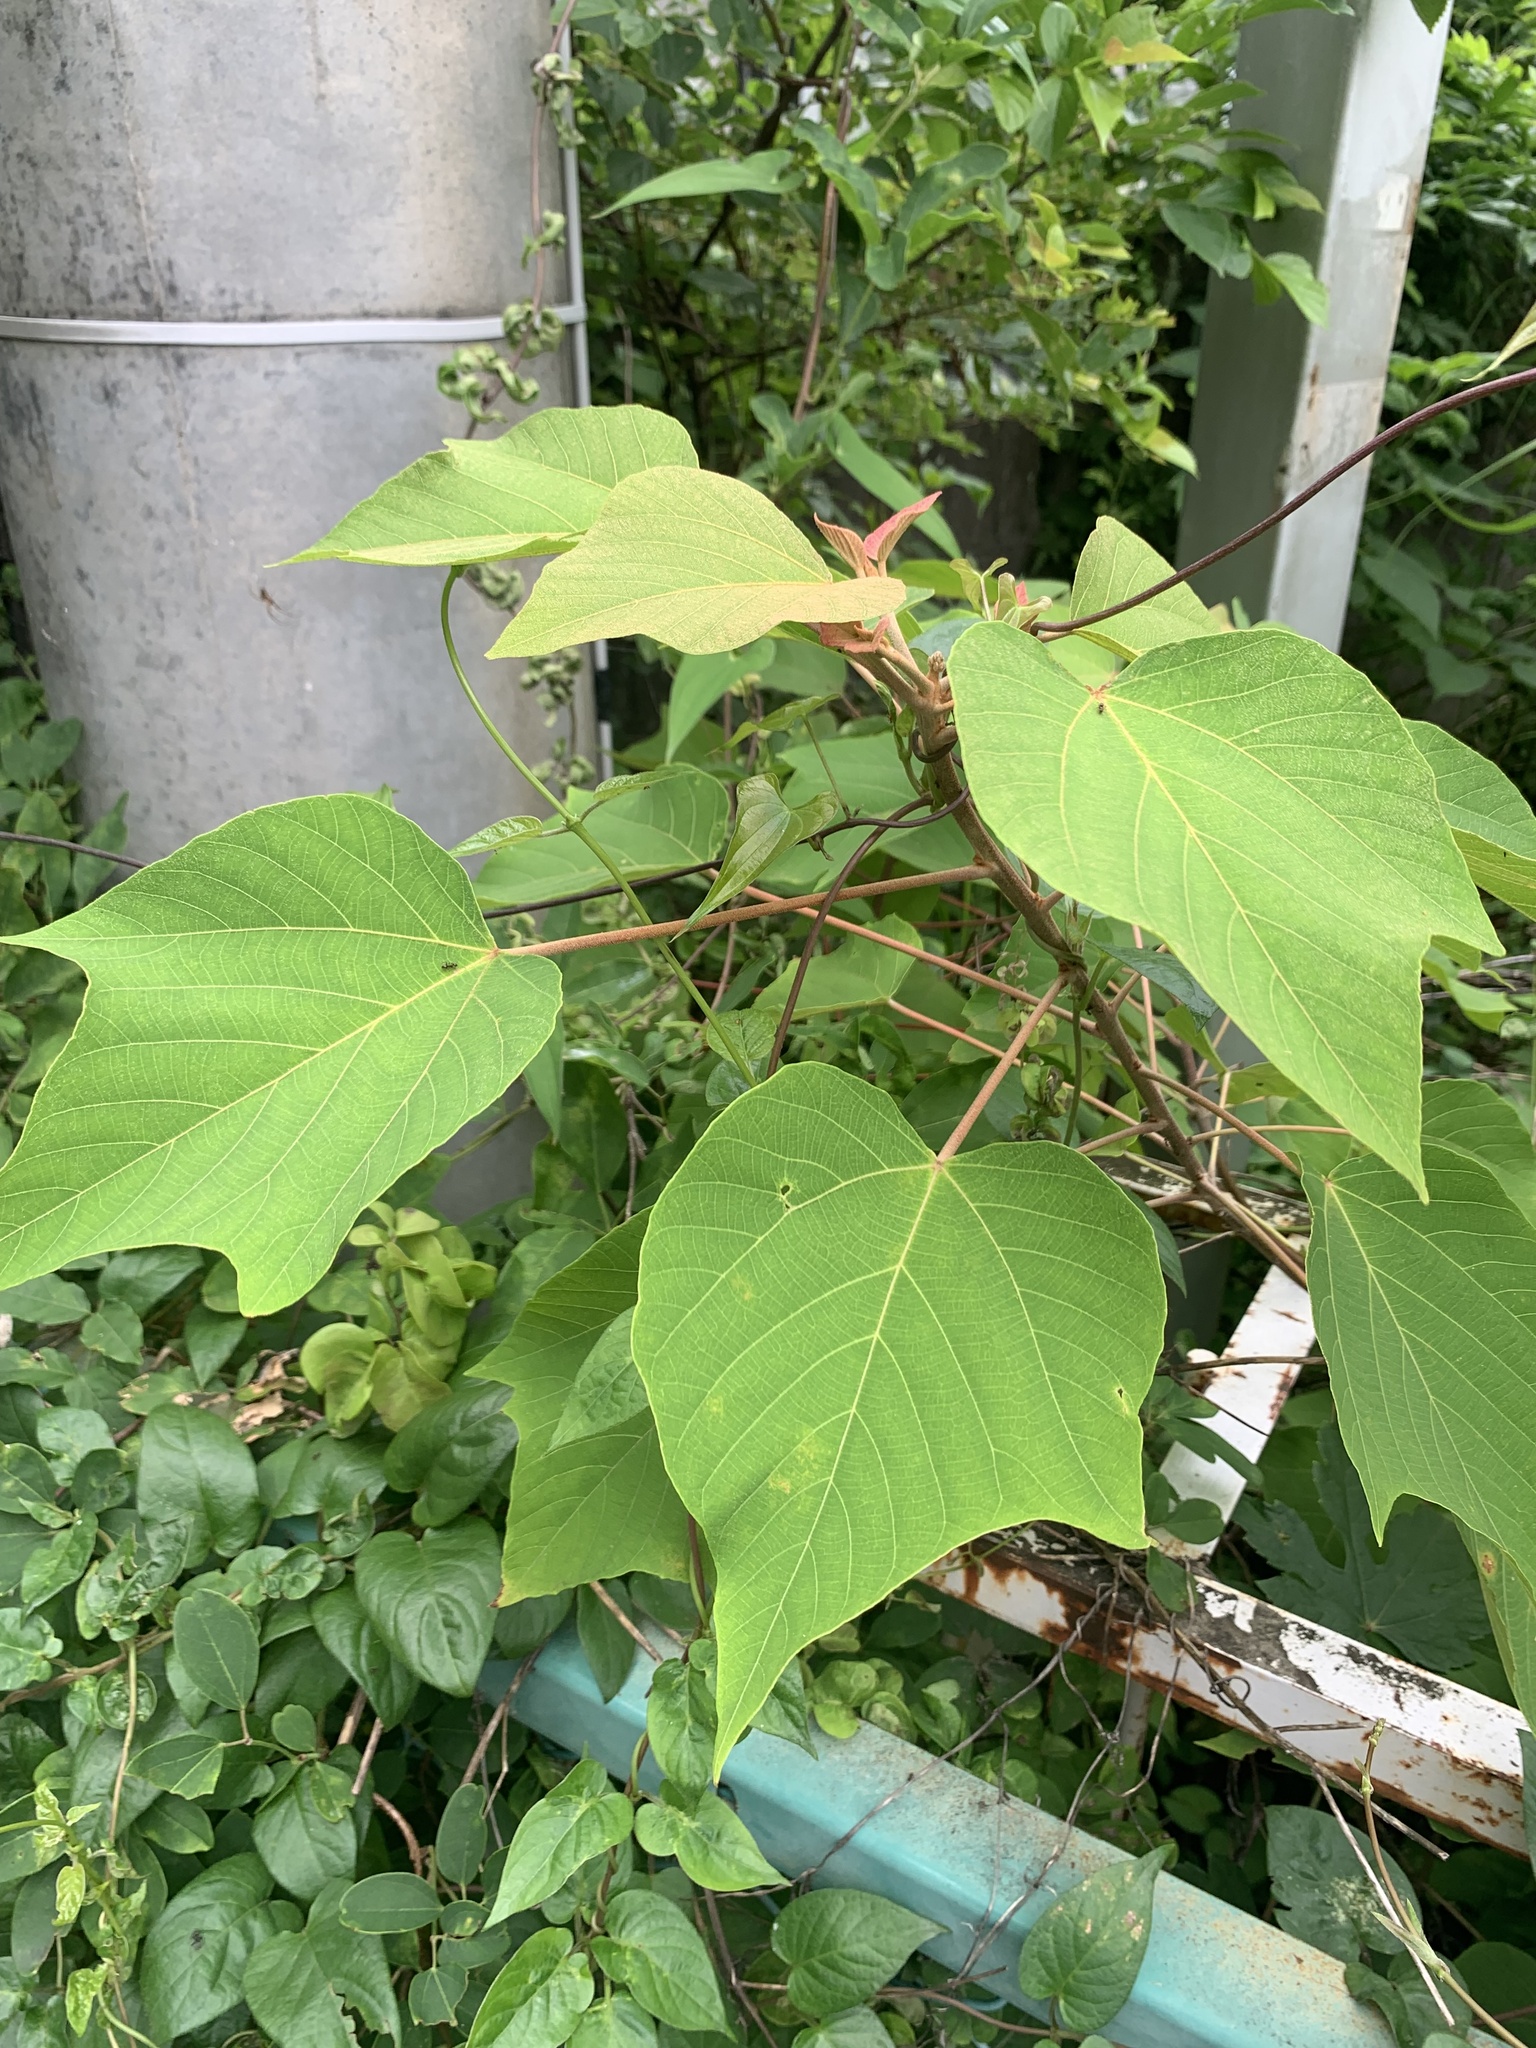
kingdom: Plantae
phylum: Tracheophyta
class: Magnoliopsida
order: Malpighiales
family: Euphorbiaceae
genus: Mallotus
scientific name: Mallotus japonicus
